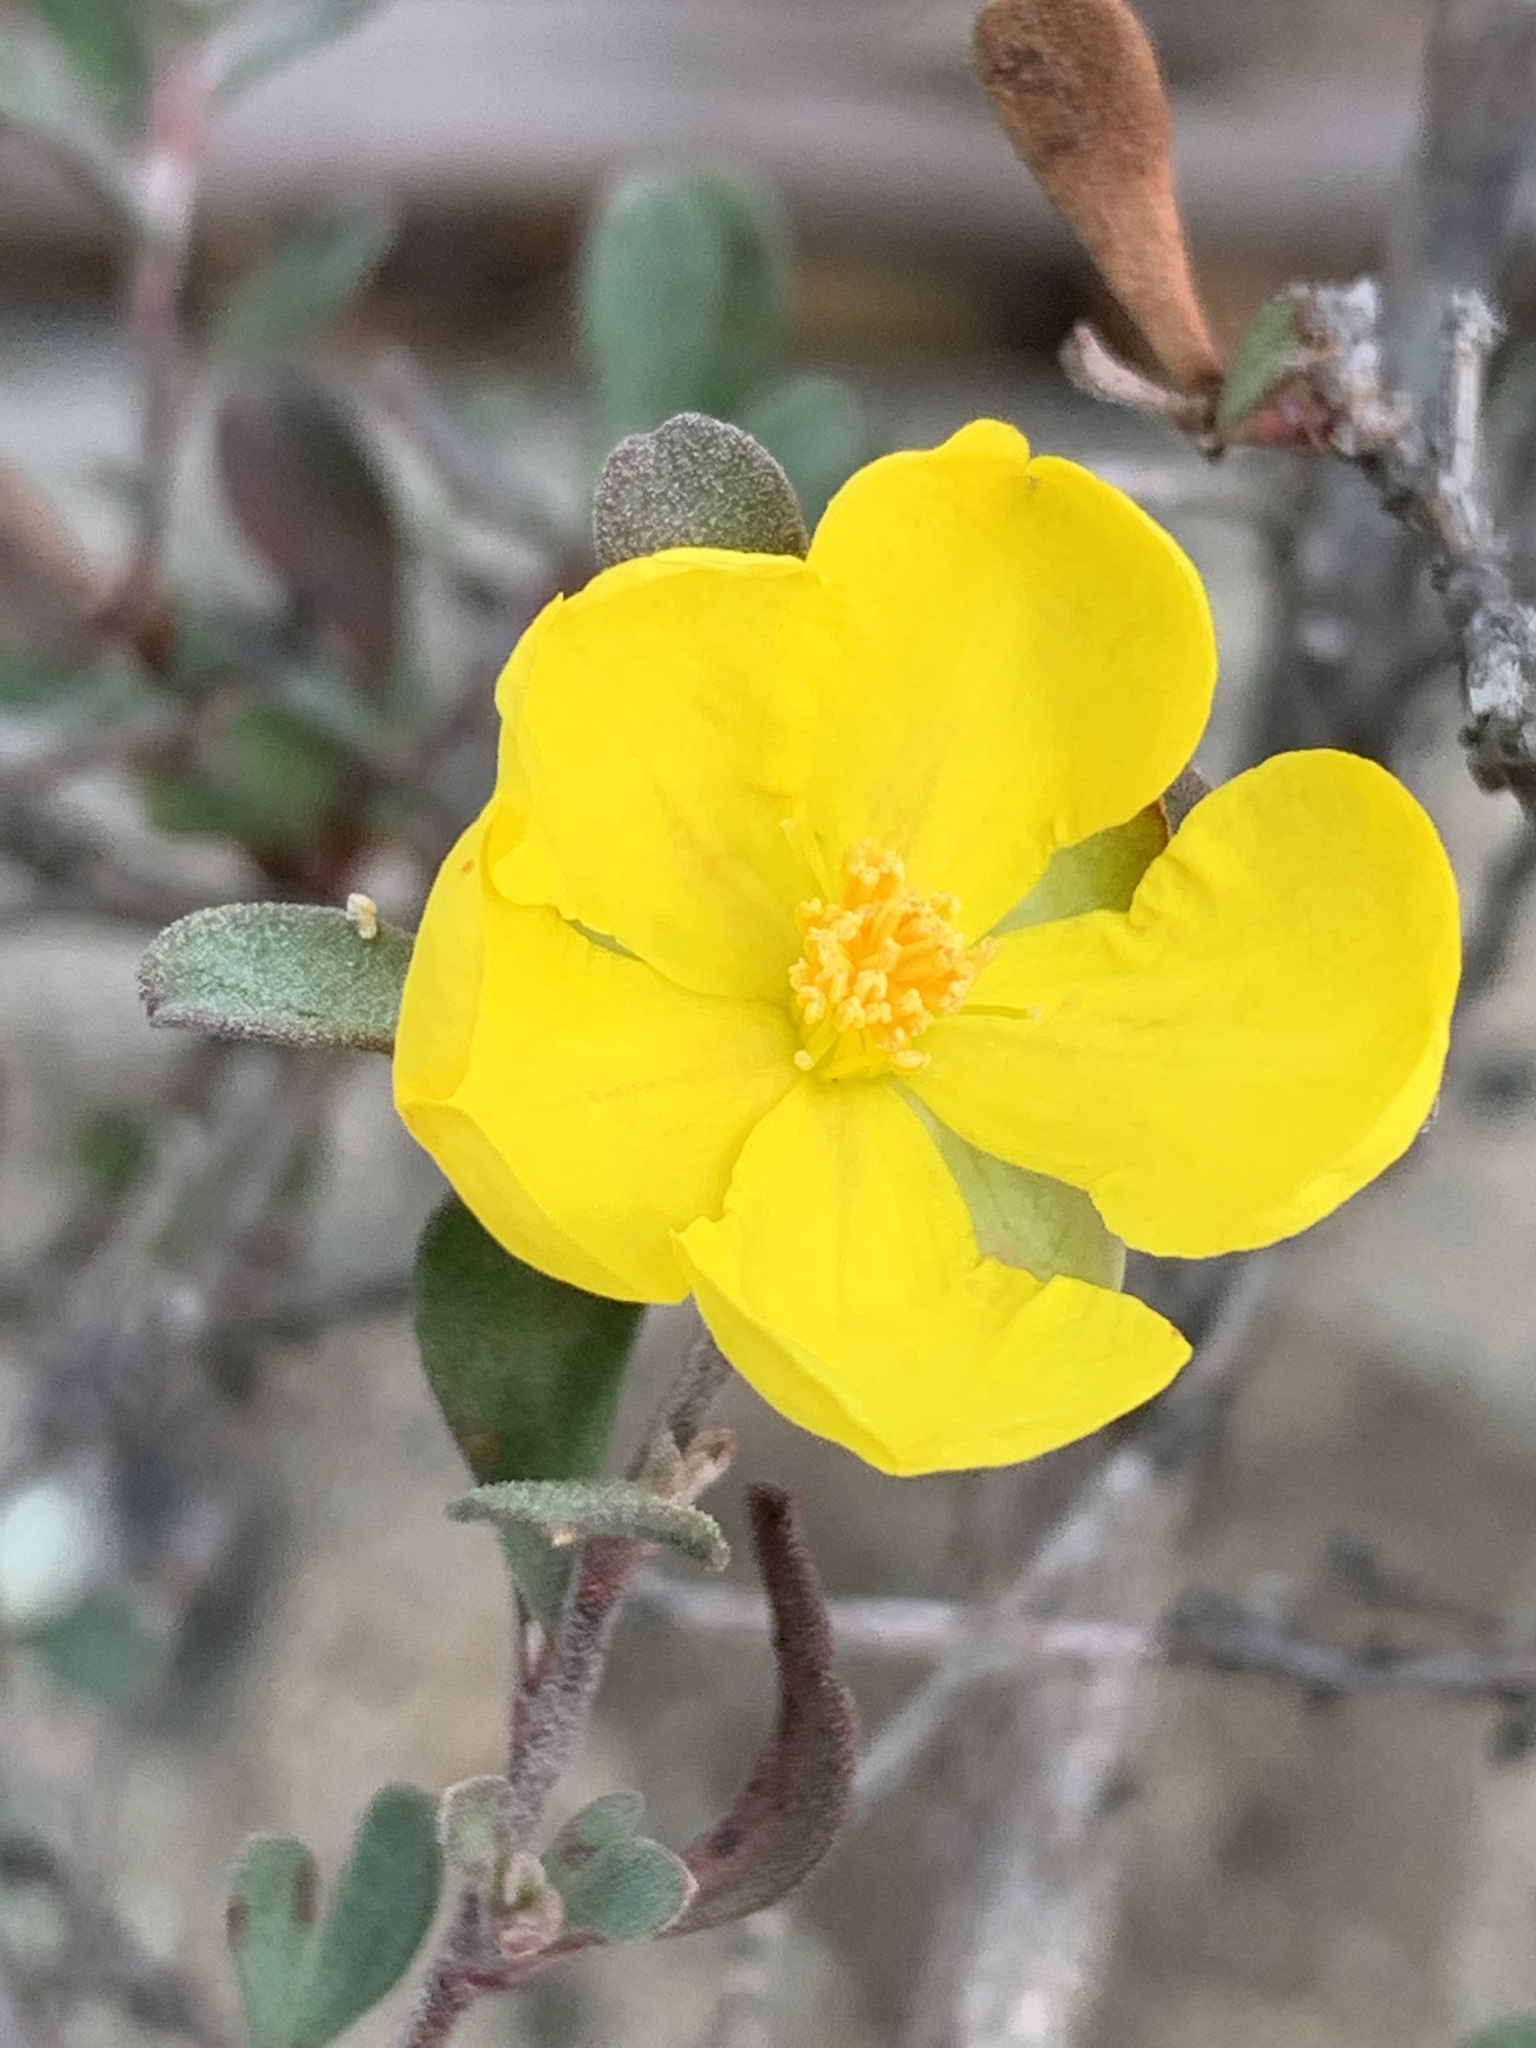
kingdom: Plantae
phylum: Tracheophyta
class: Magnoliopsida
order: Dilleniales
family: Dilleniaceae
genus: Hibbertia
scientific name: Hibbertia obtusifolia
